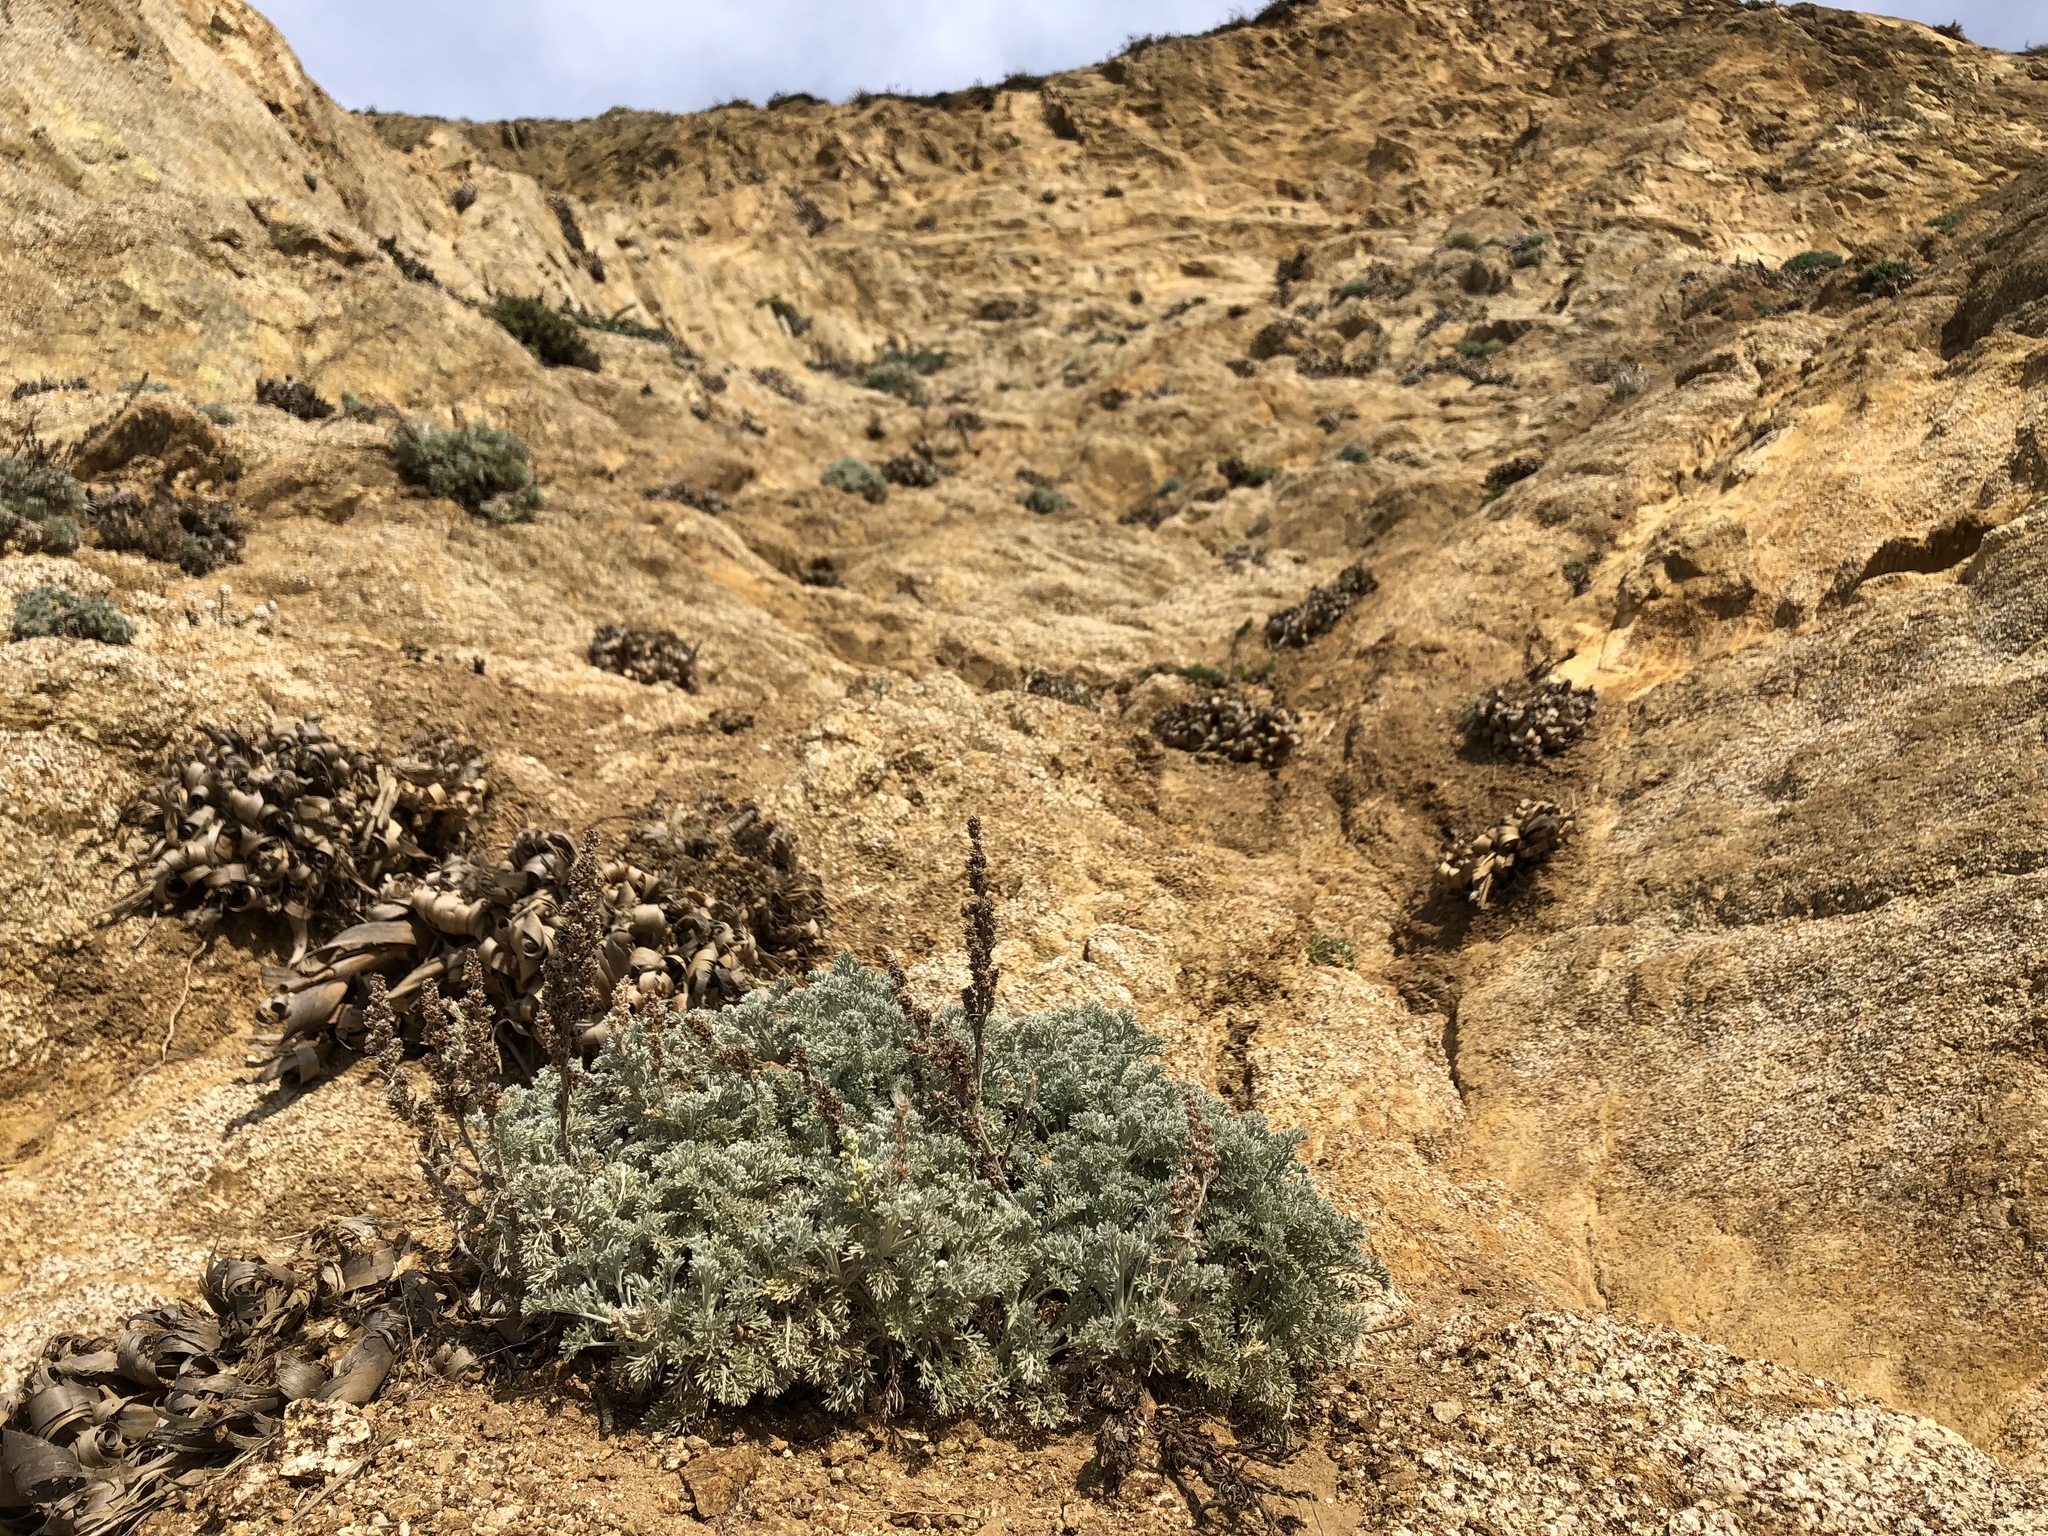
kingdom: Plantae
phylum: Tracheophyta
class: Magnoliopsida
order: Asterales
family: Asteraceae
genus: Artemisia
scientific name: Artemisia pycnocephala
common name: Coastal sagewort
